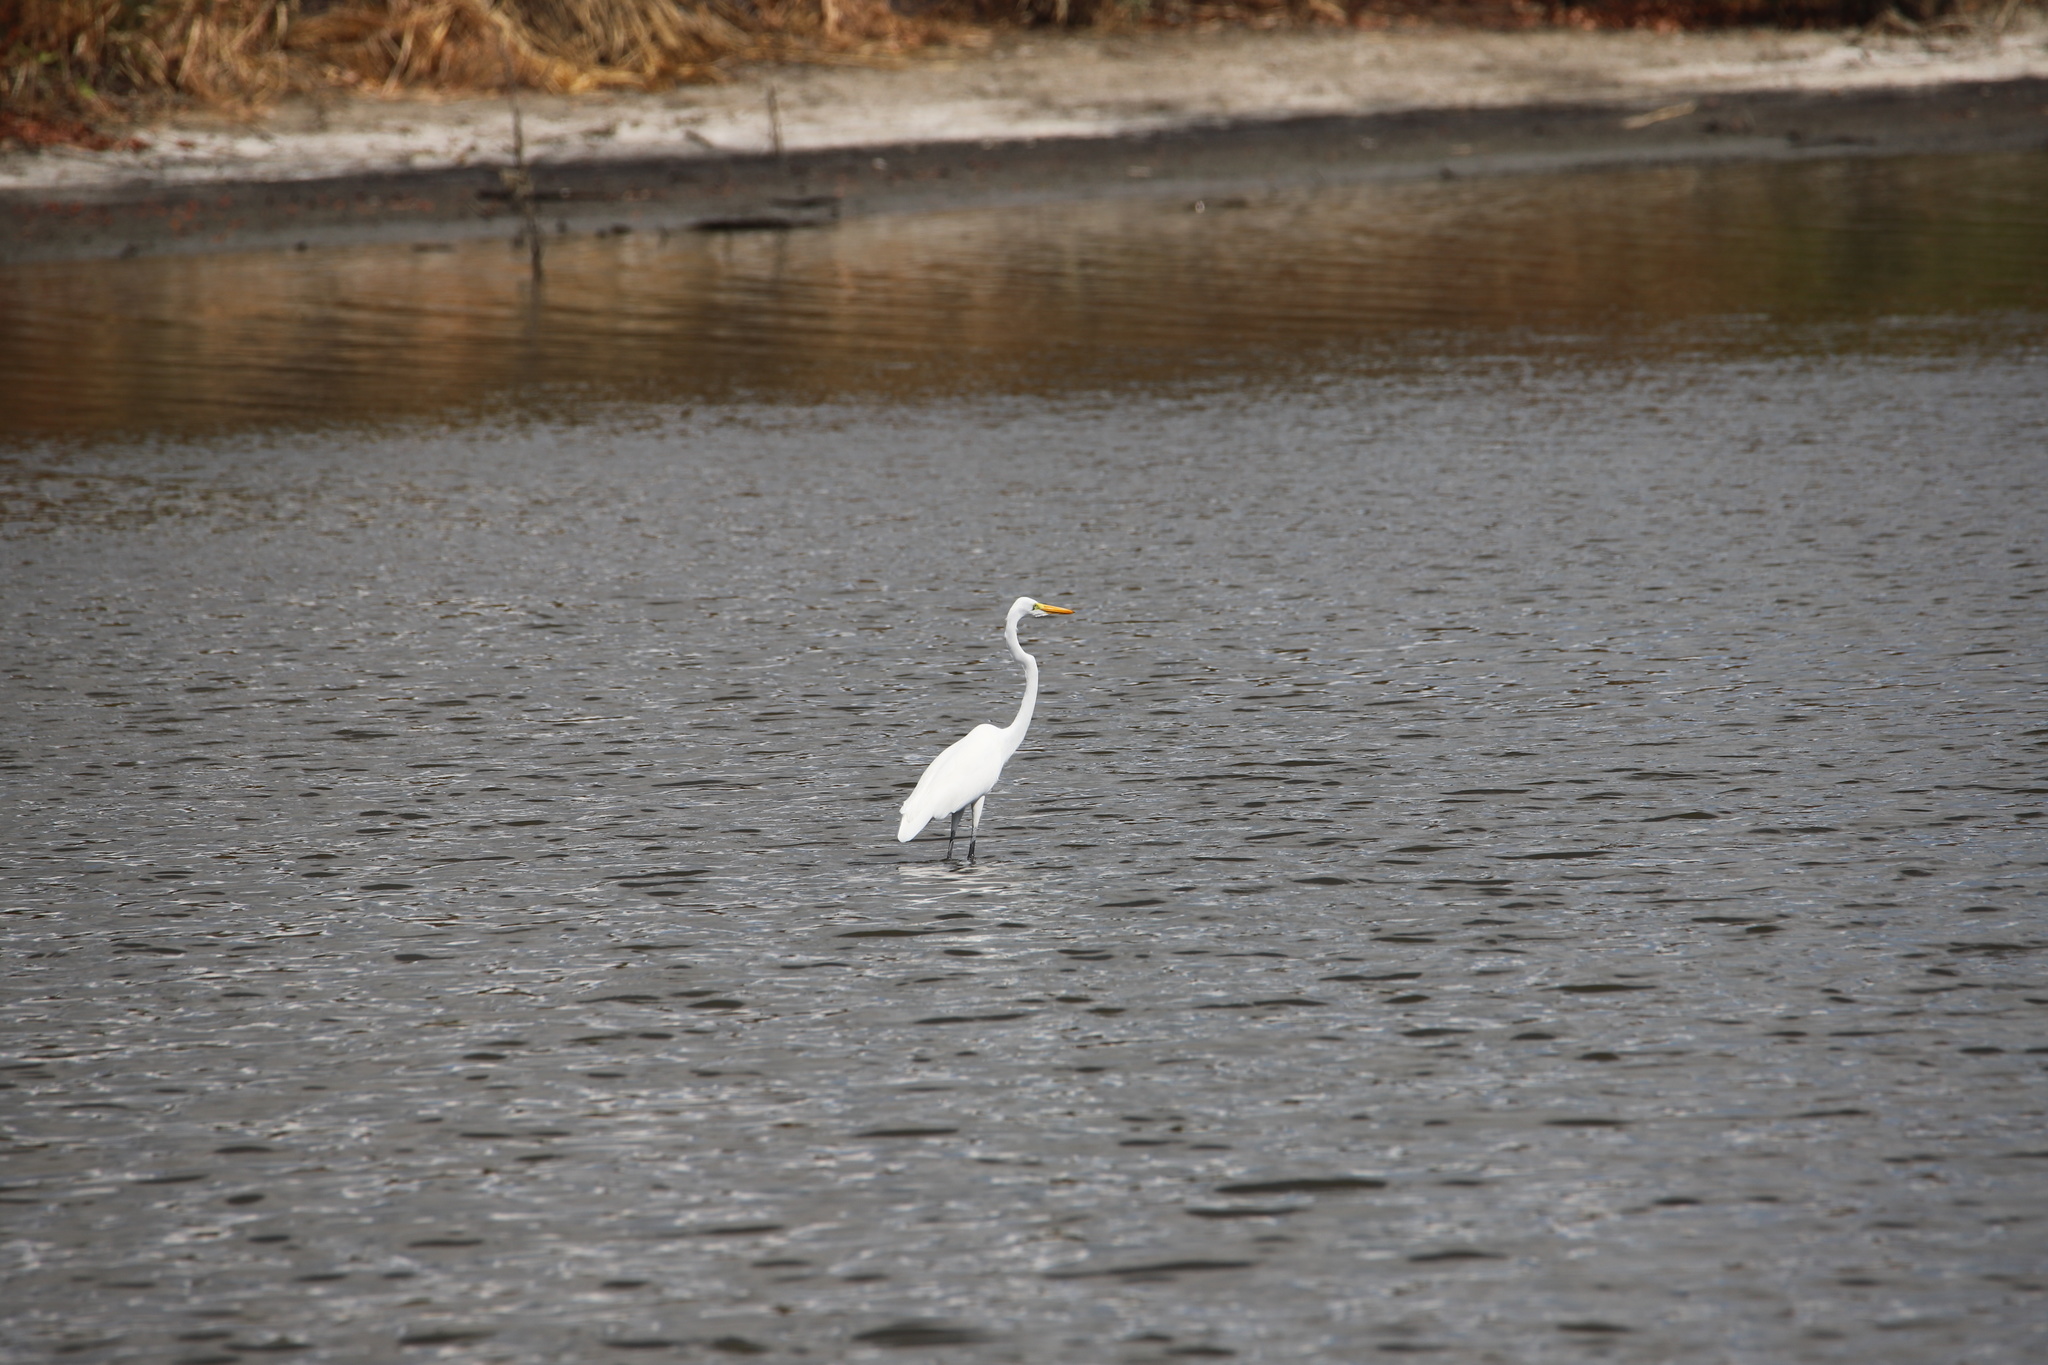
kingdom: Animalia
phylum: Chordata
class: Aves
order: Pelecaniformes
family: Ardeidae
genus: Ardea
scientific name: Ardea alba
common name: Great egret
